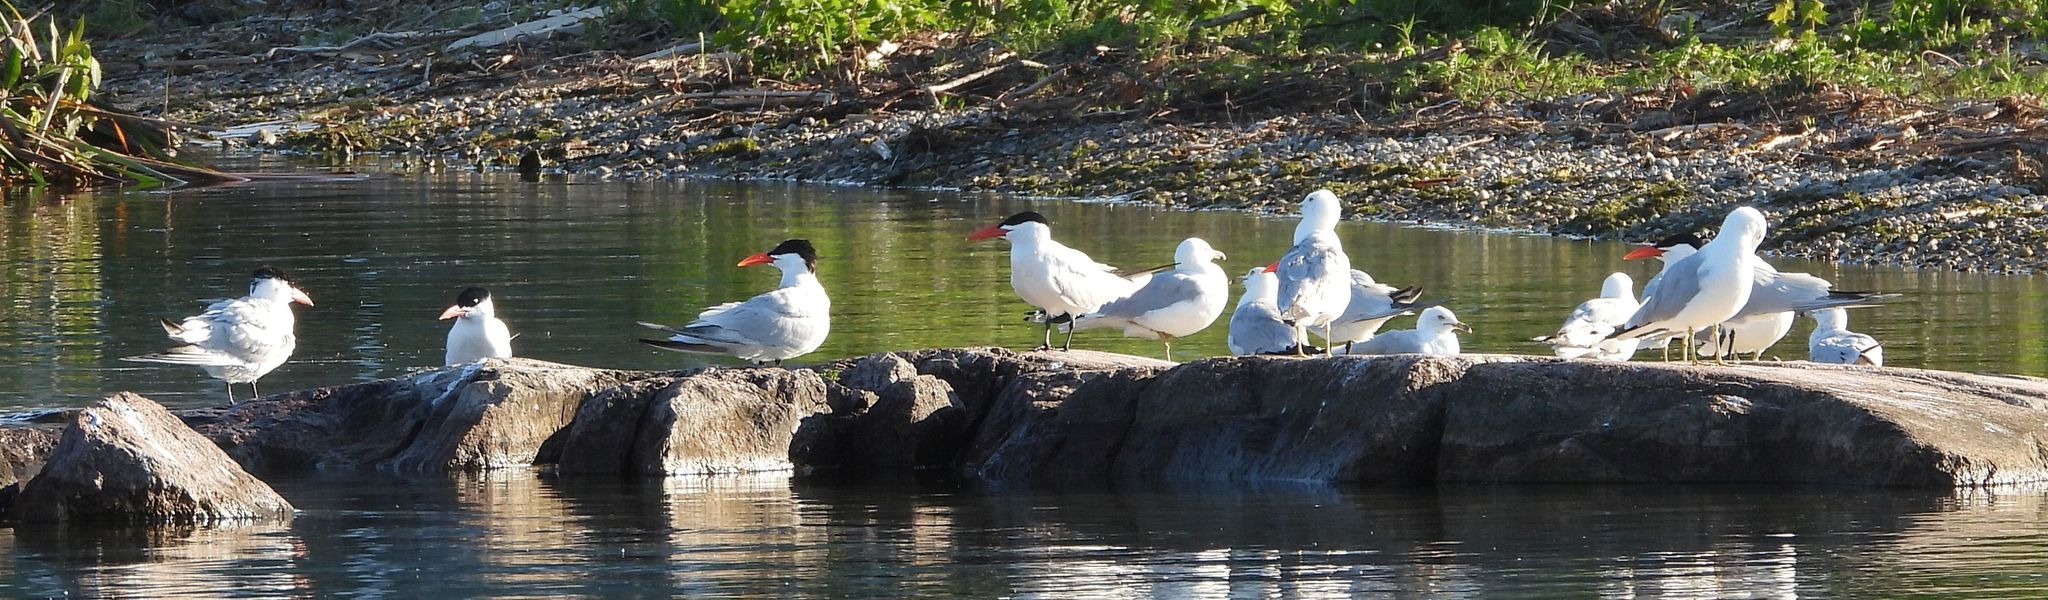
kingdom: Animalia
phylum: Chordata
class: Aves
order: Charadriiformes
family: Laridae
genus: Hydroprogne
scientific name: Hydroprogne caspia
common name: Caspian tern
